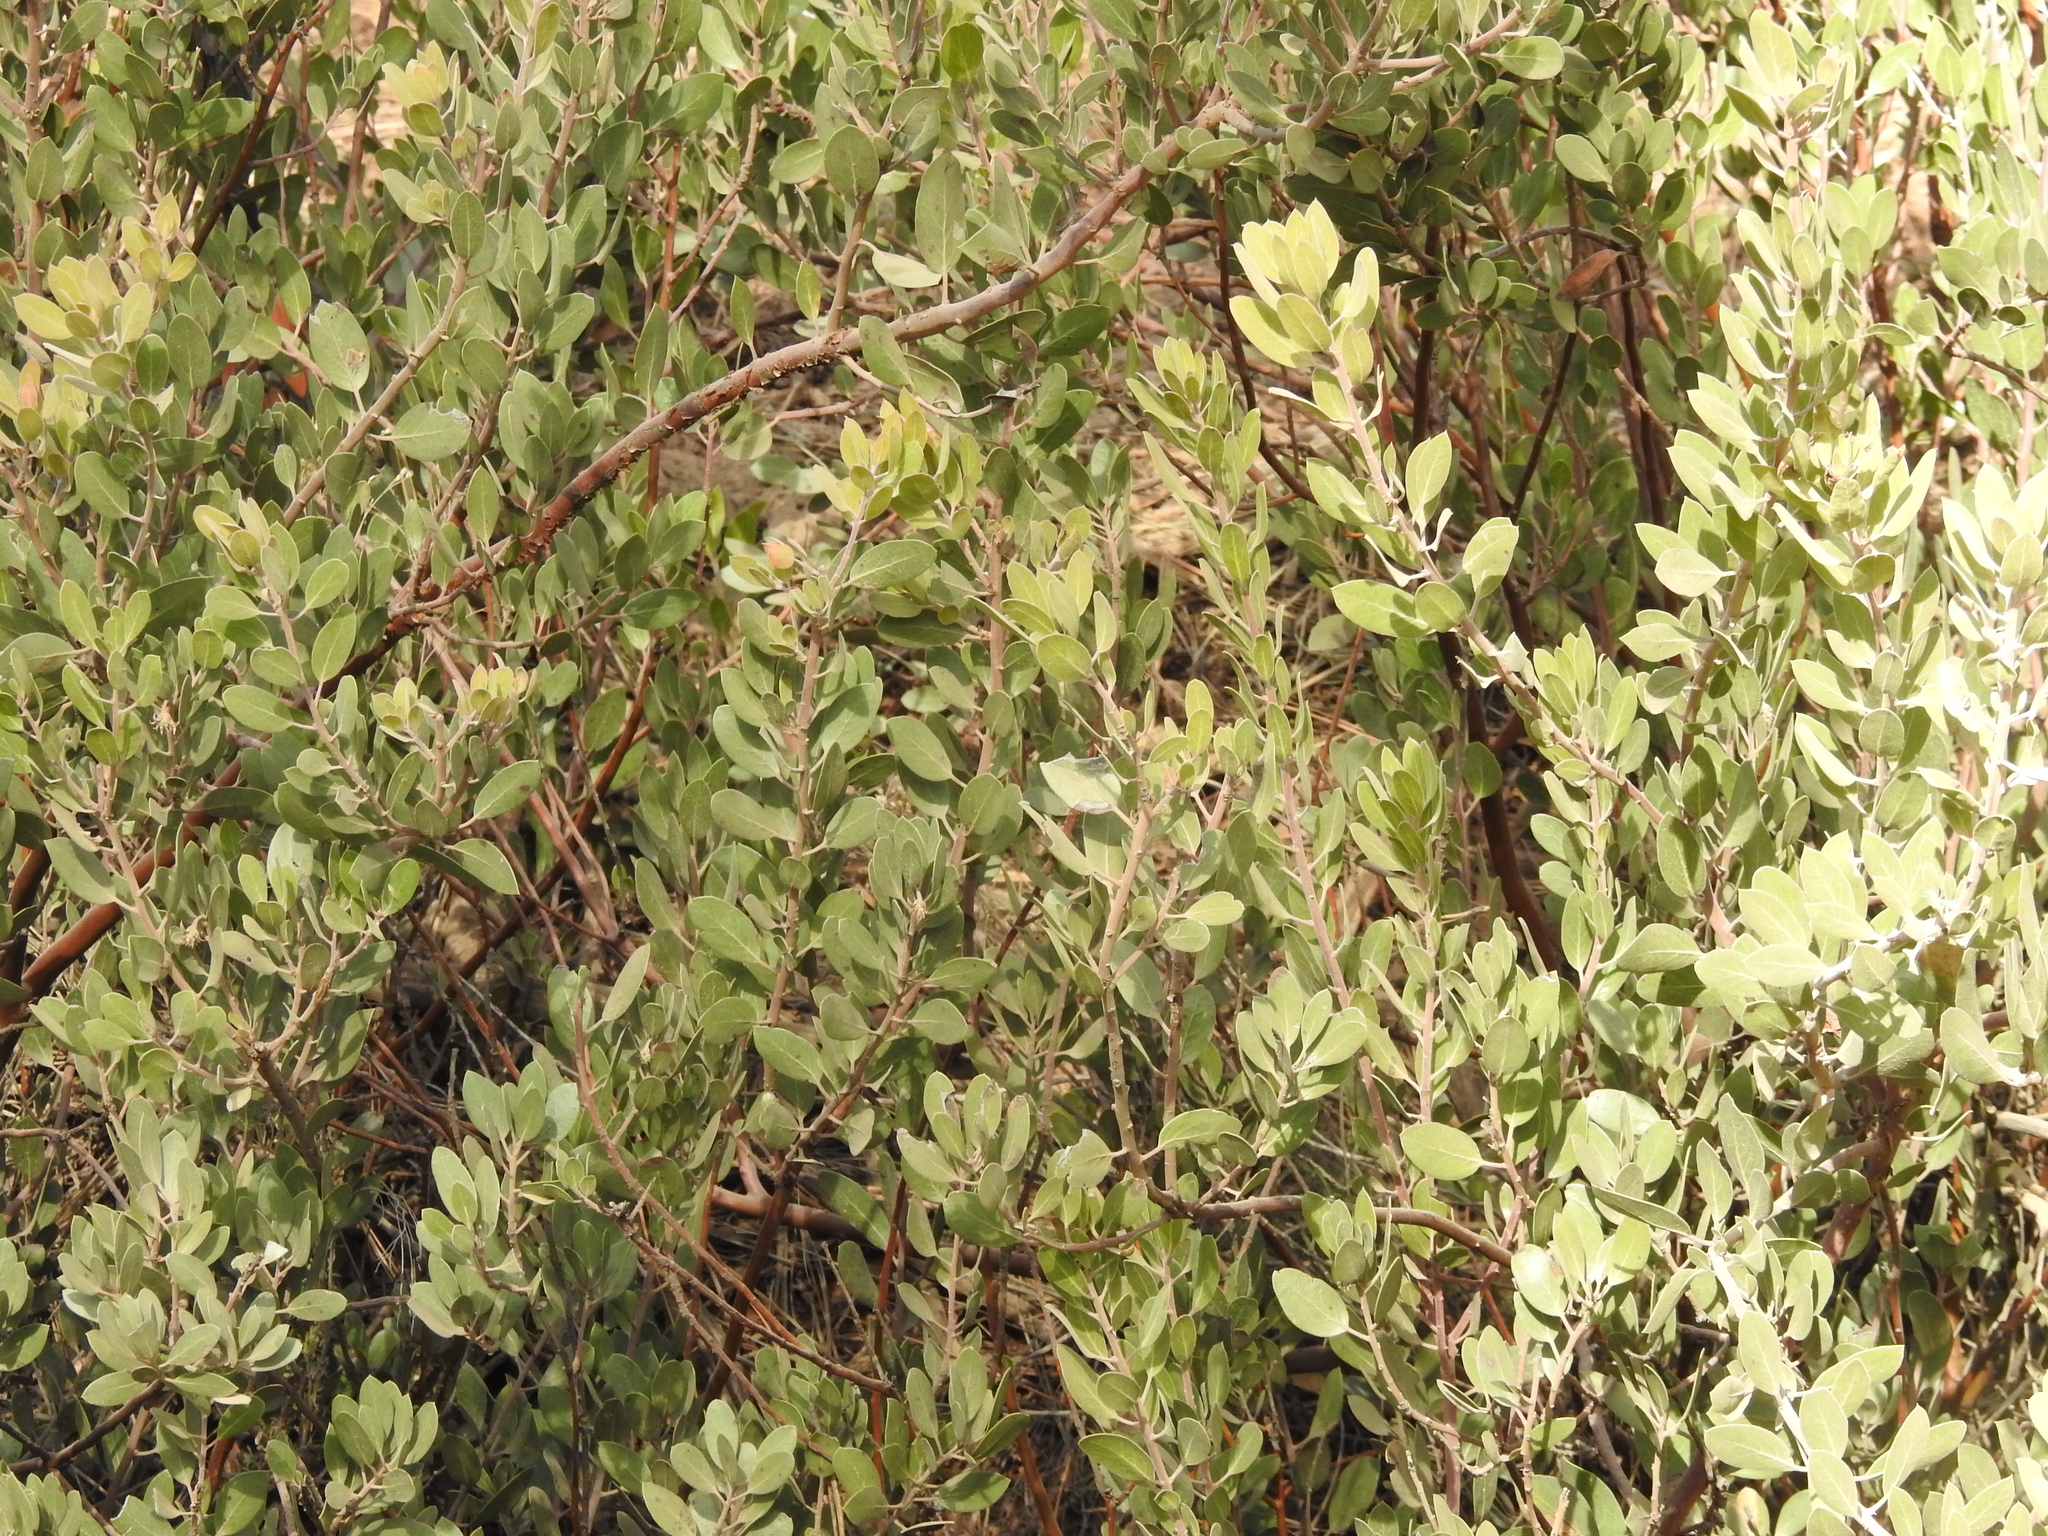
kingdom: Plantae
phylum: Tracheophyta
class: Magnoliopsida
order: Ericales
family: Ericaceae
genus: Arctostaphylos
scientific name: Arctostaphylos pungens
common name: Mexican manzanita
